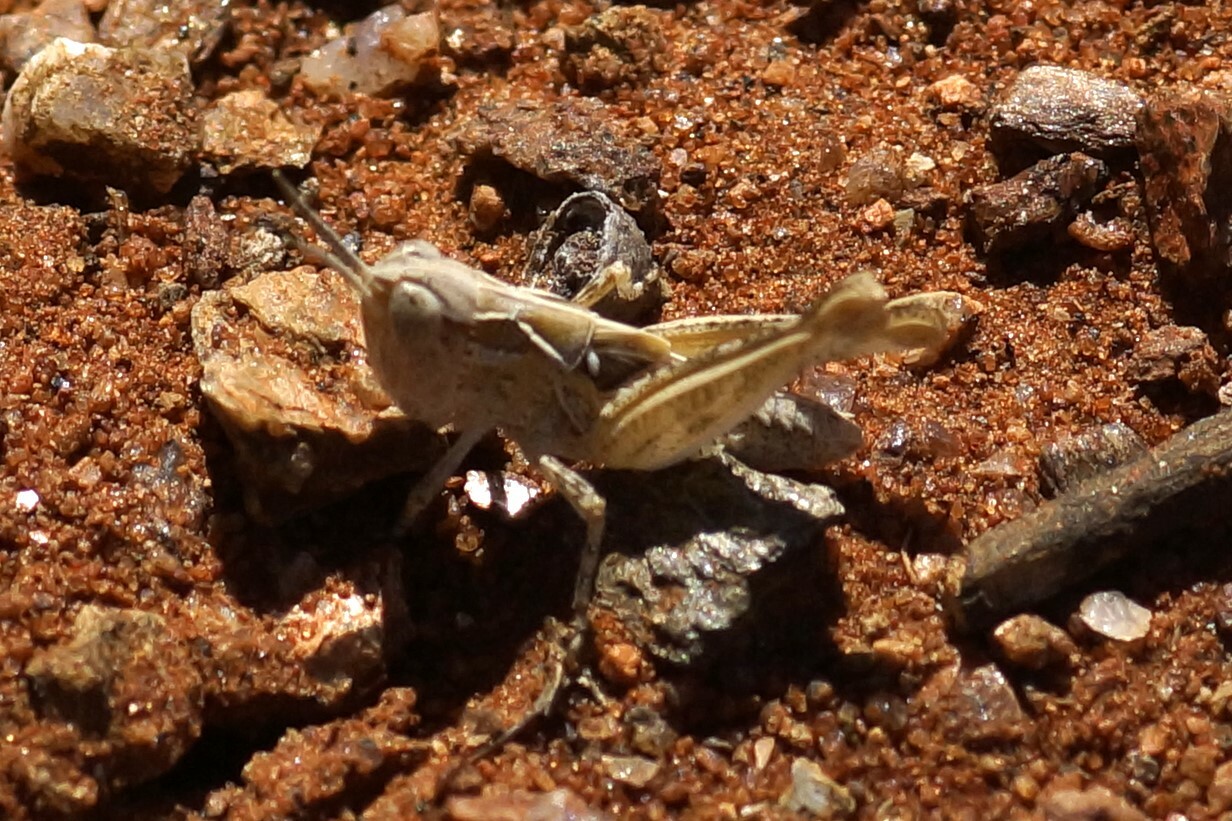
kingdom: Animalia
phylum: Arthropoda
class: Insecta
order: Orthoptera
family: Acrididae
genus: Chortoicetes
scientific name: Chortoicetes terminifera
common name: Australian plague locust
